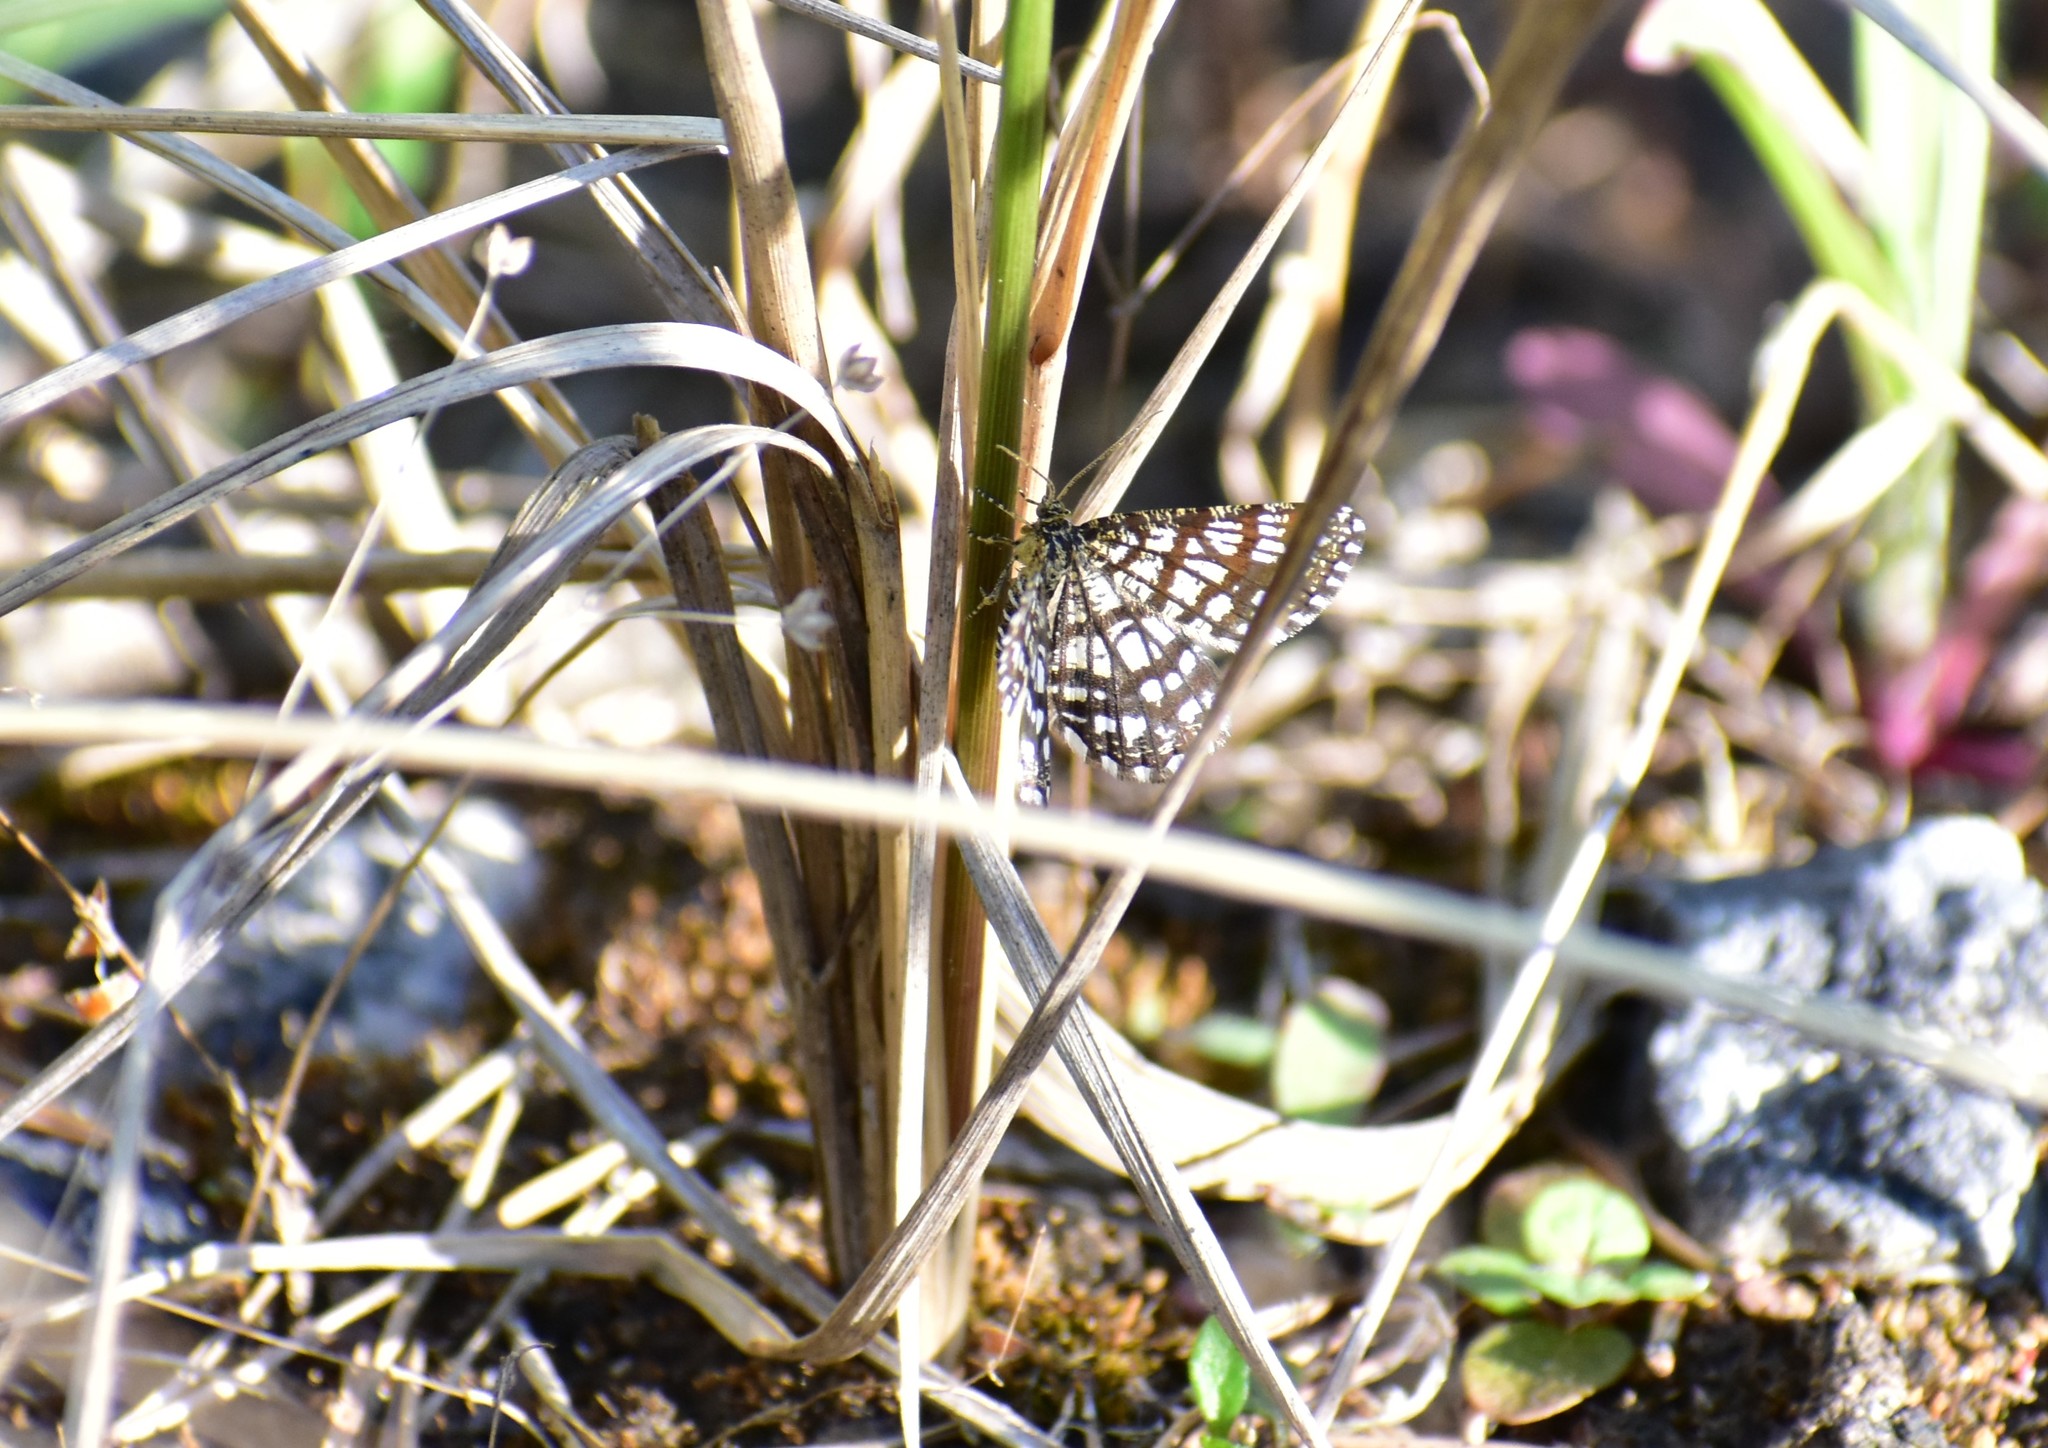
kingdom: Animalia
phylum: Arthropoda
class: Insecta
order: Lepidoptera
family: Geometridae
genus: Chiasmia
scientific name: Chiasmia clathrata
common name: Latticed heath
